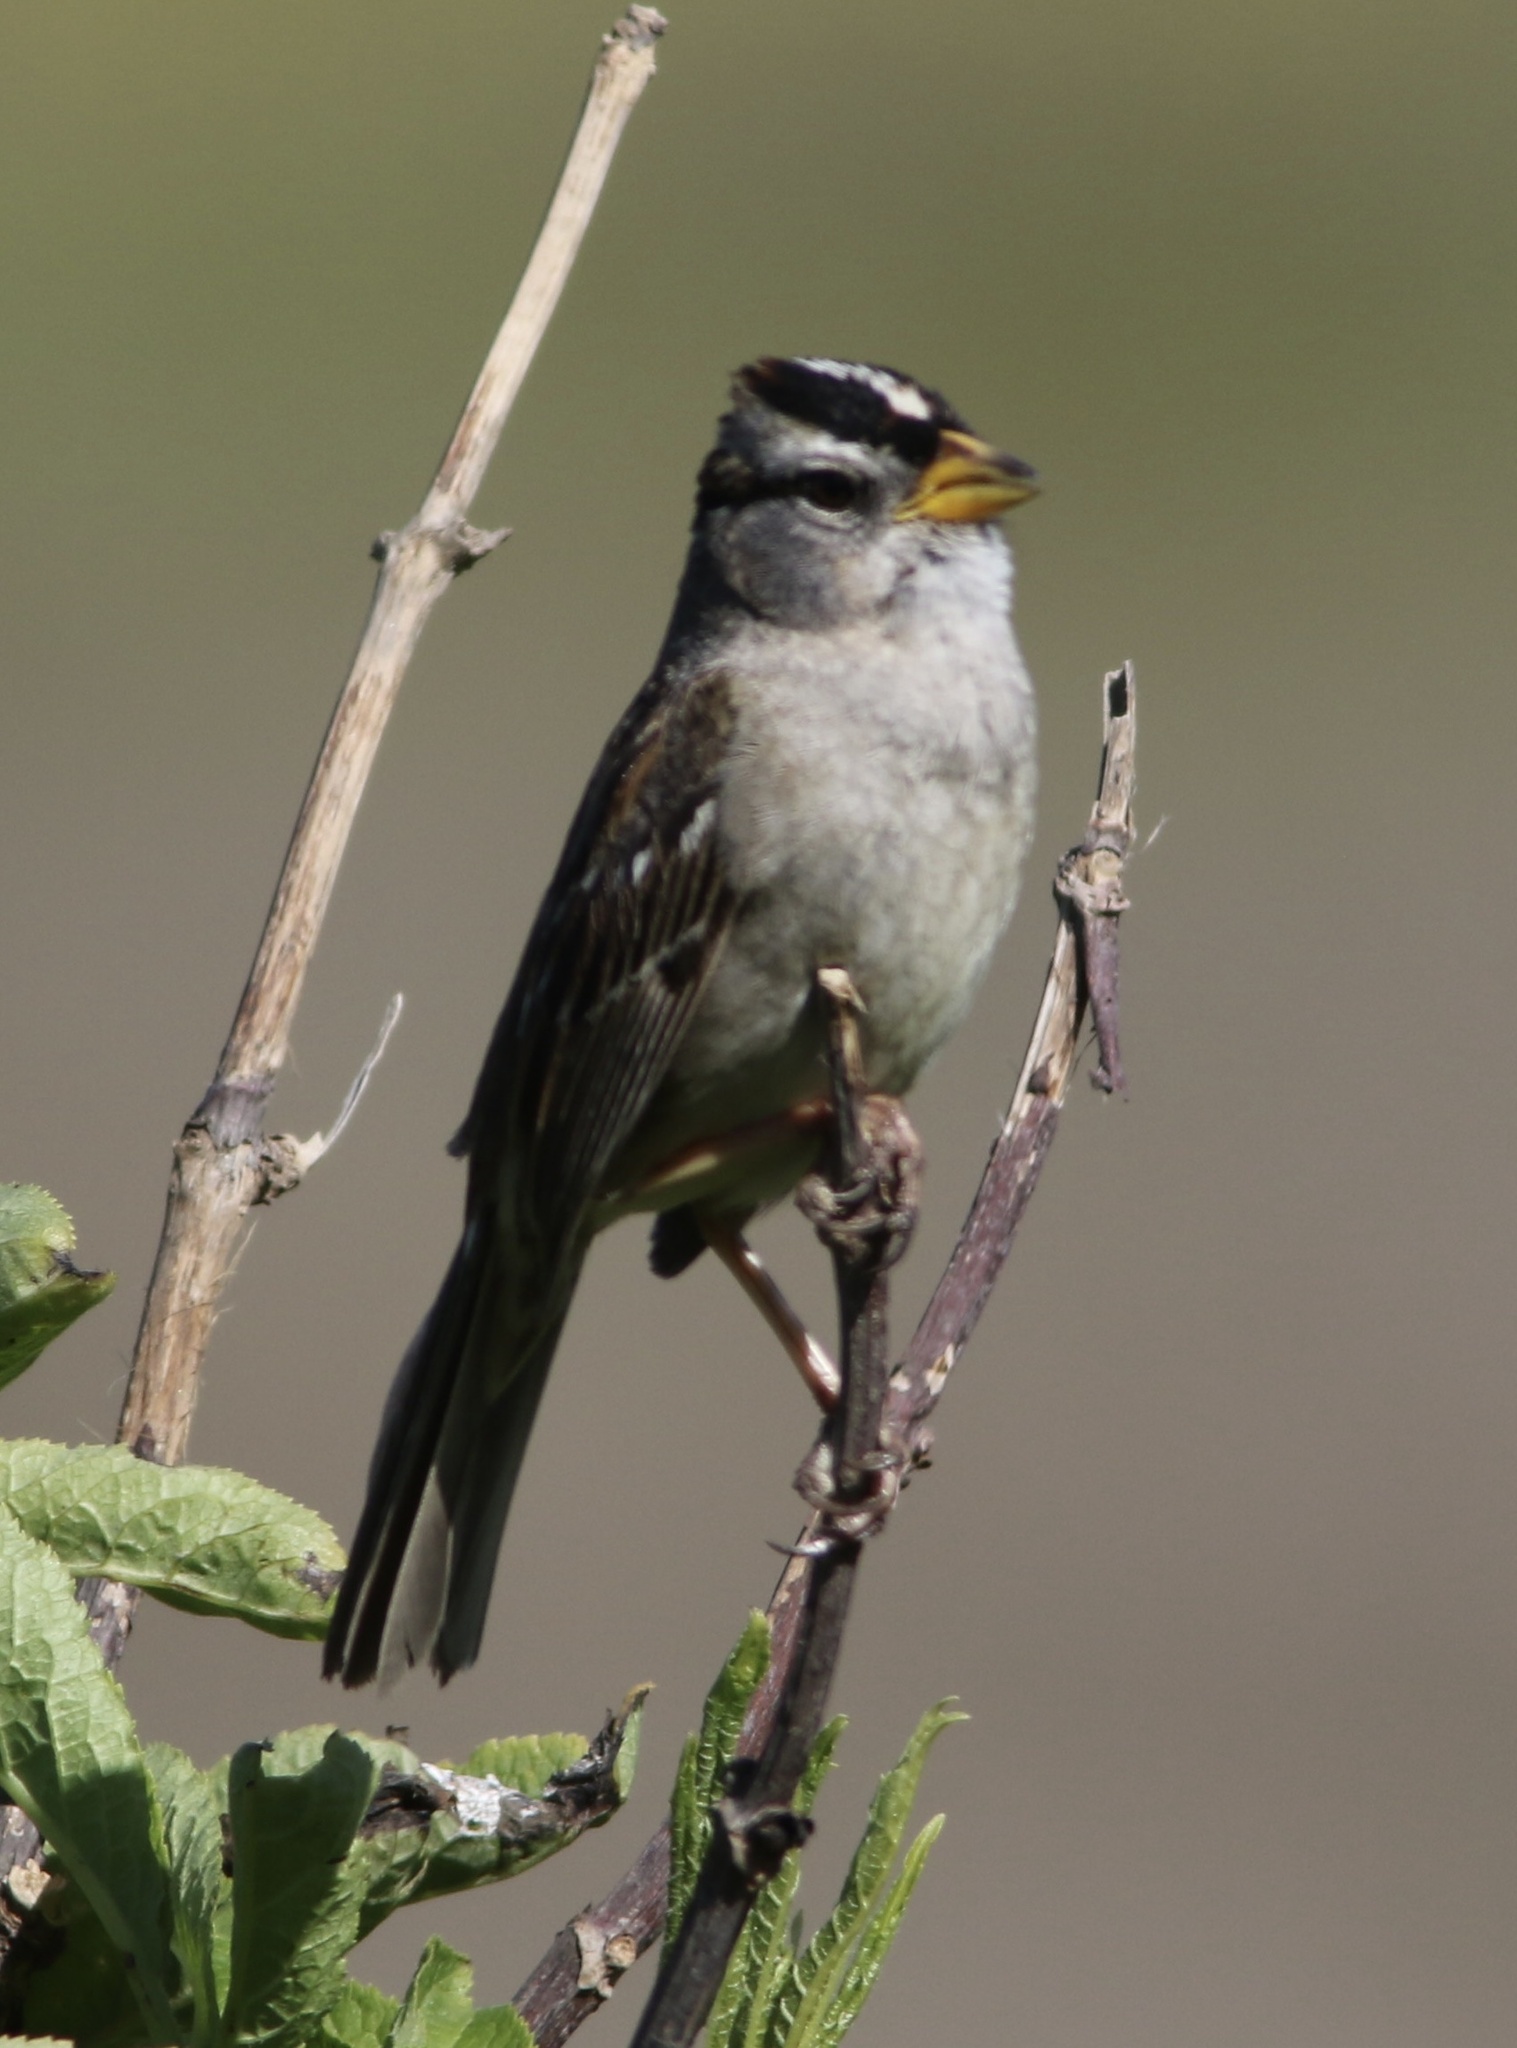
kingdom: Animalia
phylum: Chordata
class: Aves
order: Passeriformes
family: Passerellidae
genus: Zonotrichia
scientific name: Zonotrichia leucophrys
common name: White-crowned sparrow
